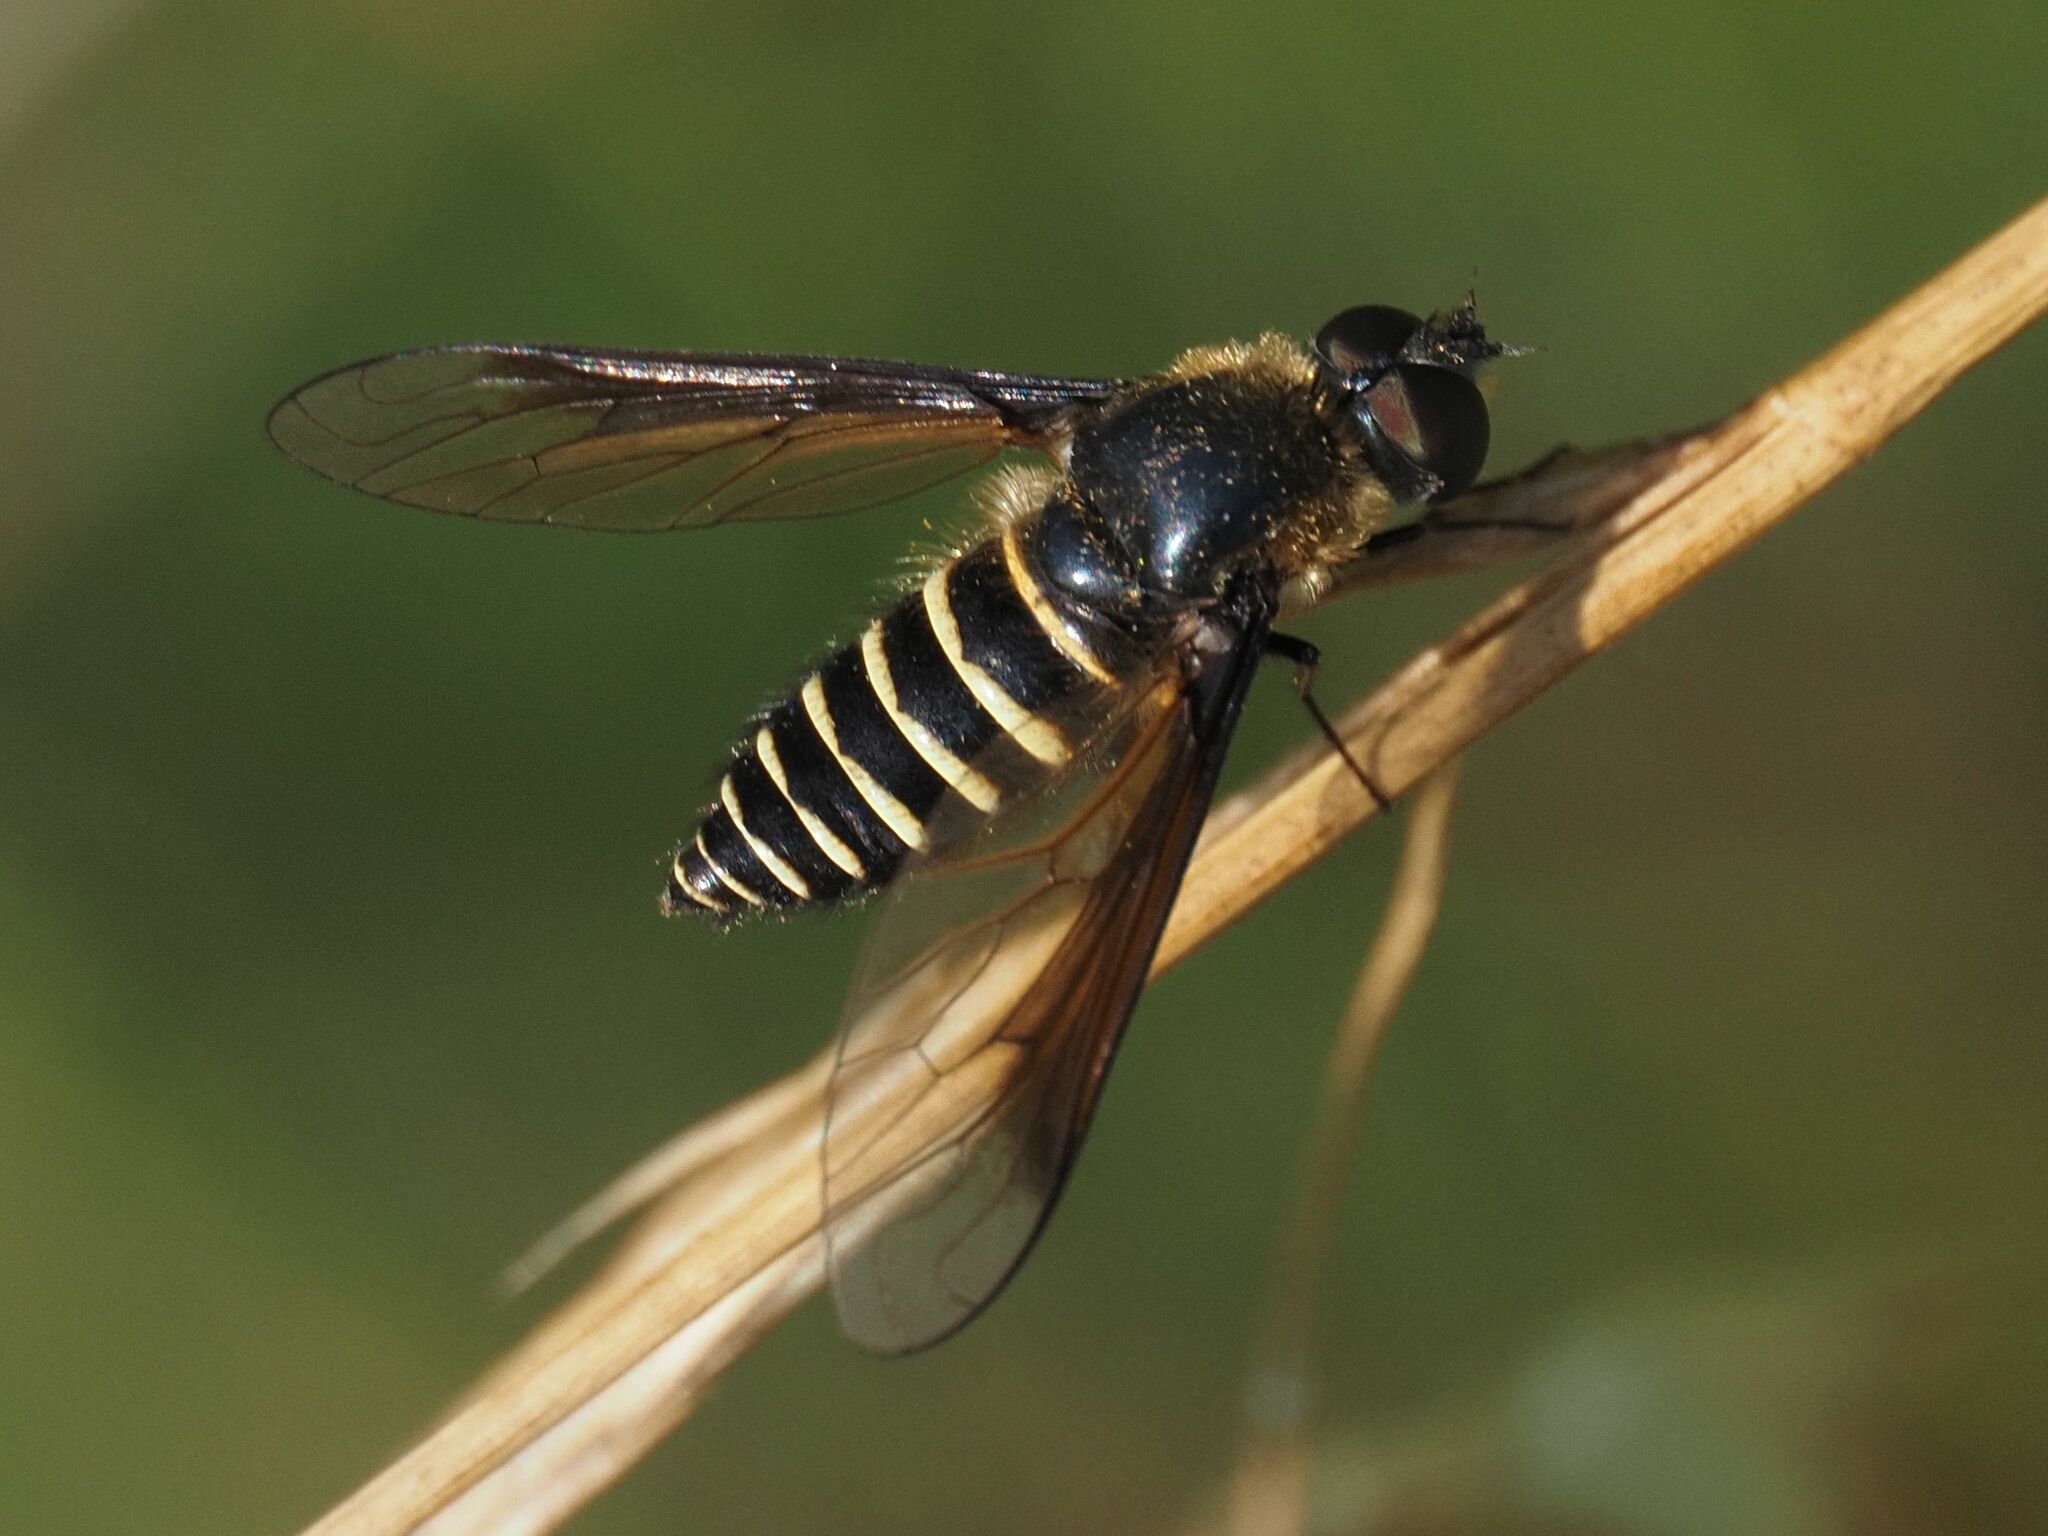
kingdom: Animalia
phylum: Arthropoda
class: Insecta
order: Diptera
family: Bombyliidae
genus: Lomatia
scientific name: Lomatia lateralis
